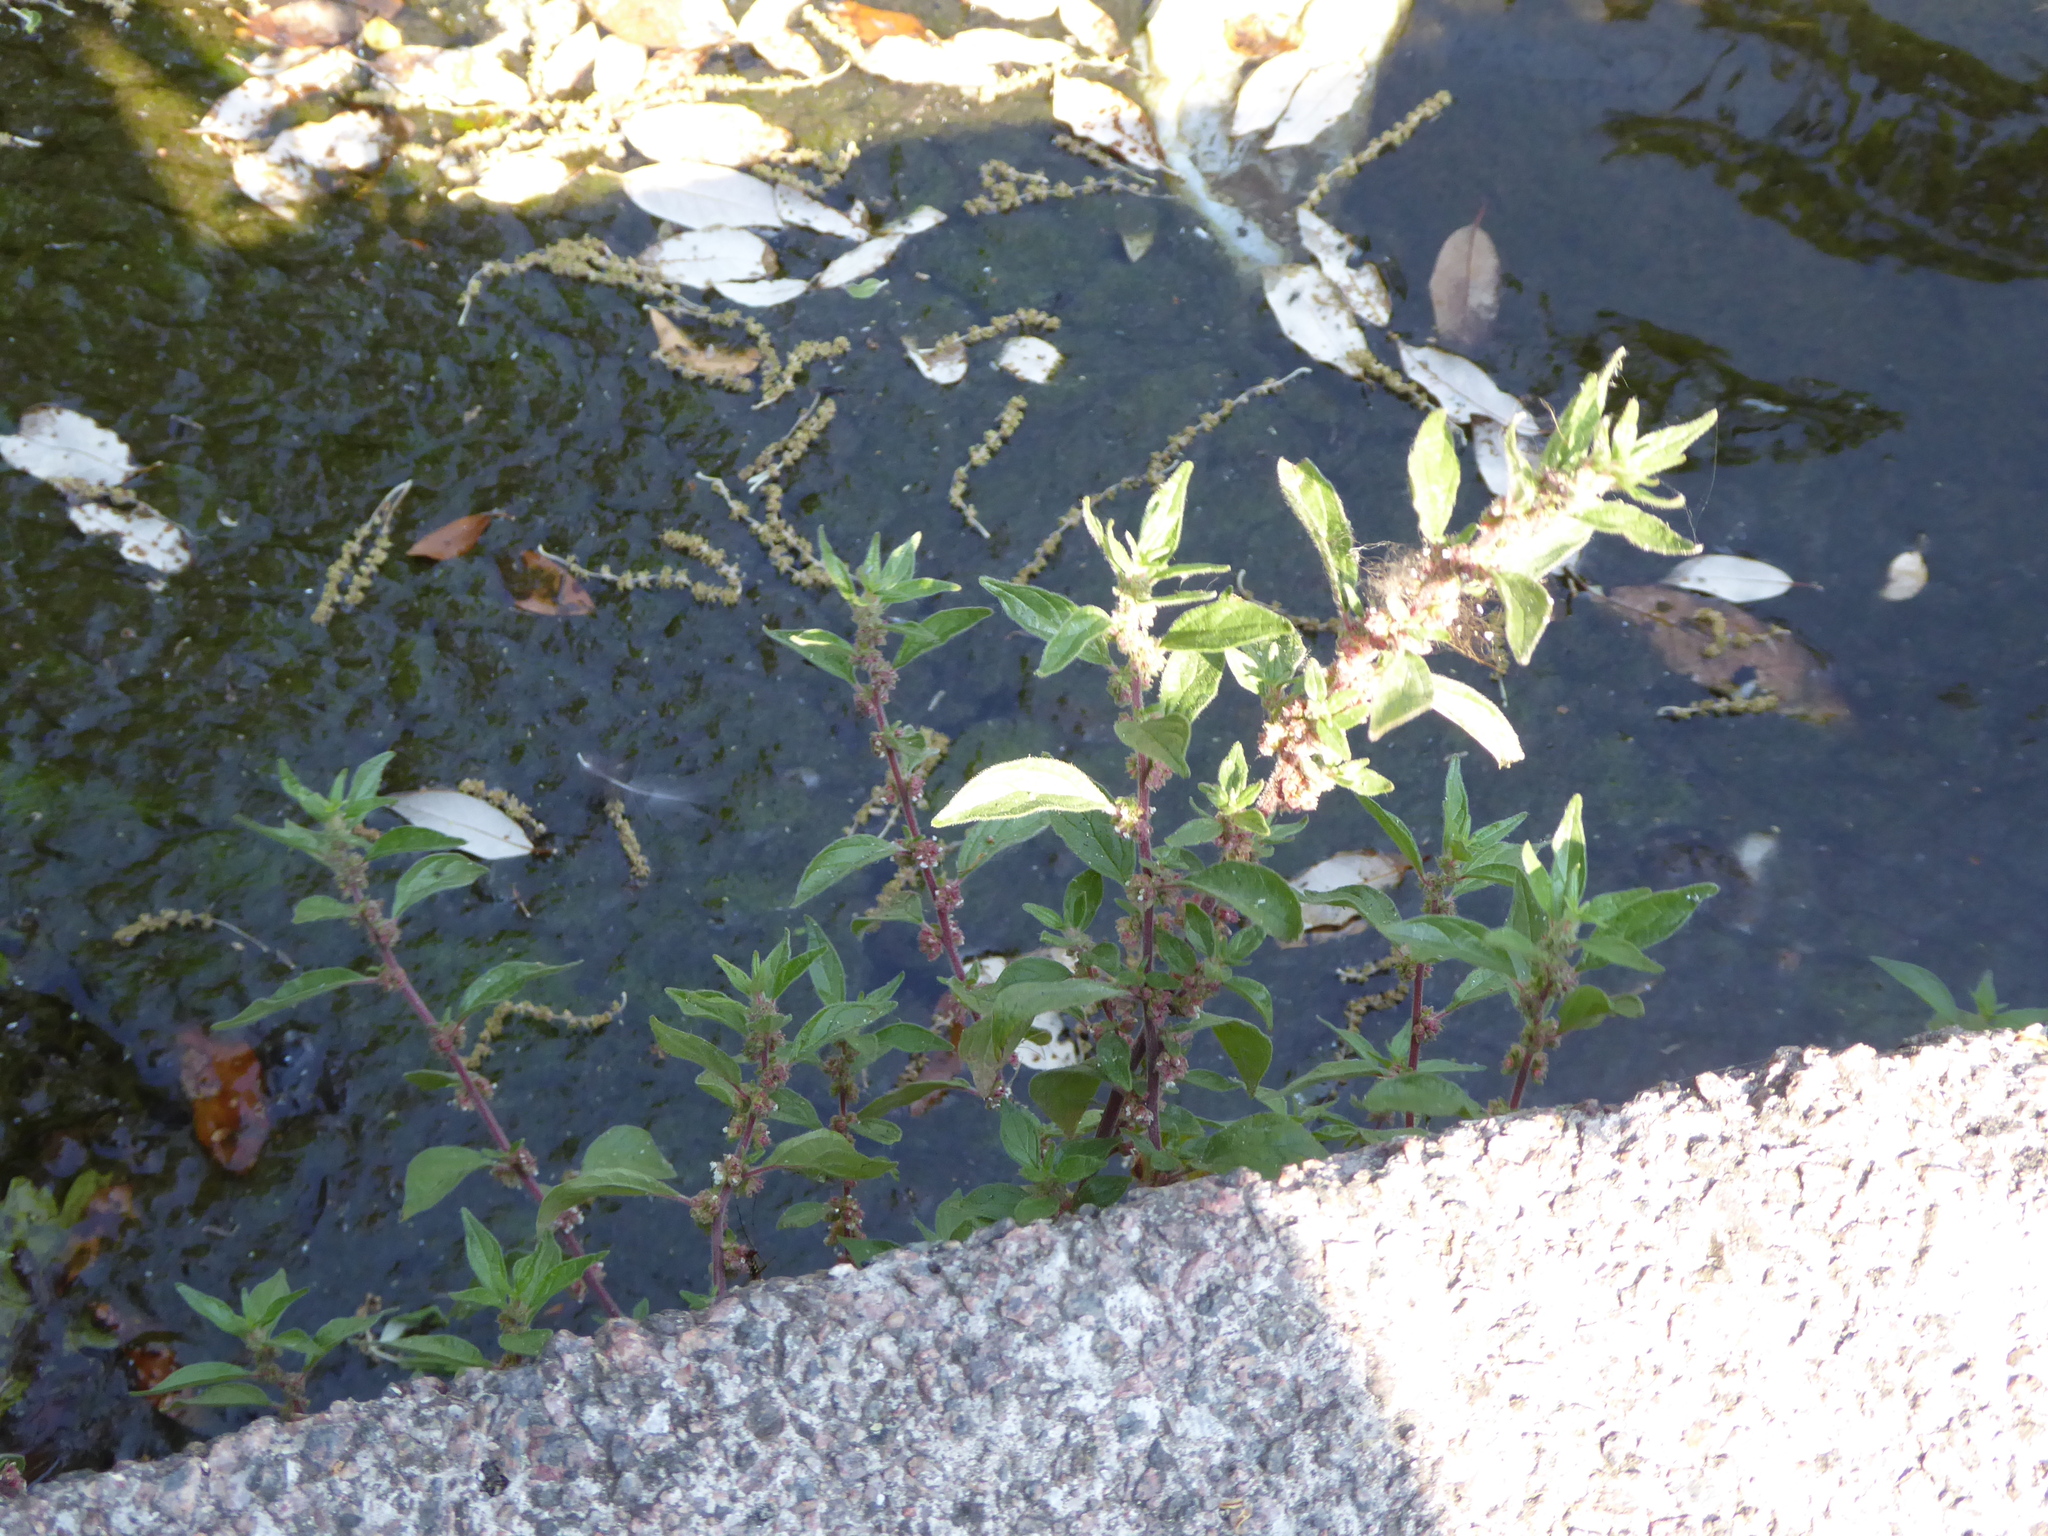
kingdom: Plantae
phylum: Tracheophyta
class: Magnoliopsida
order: Rosales
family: Urticaceae
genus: Parietaria
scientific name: Parietaria judaica
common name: Pellitory-of-the-wall
